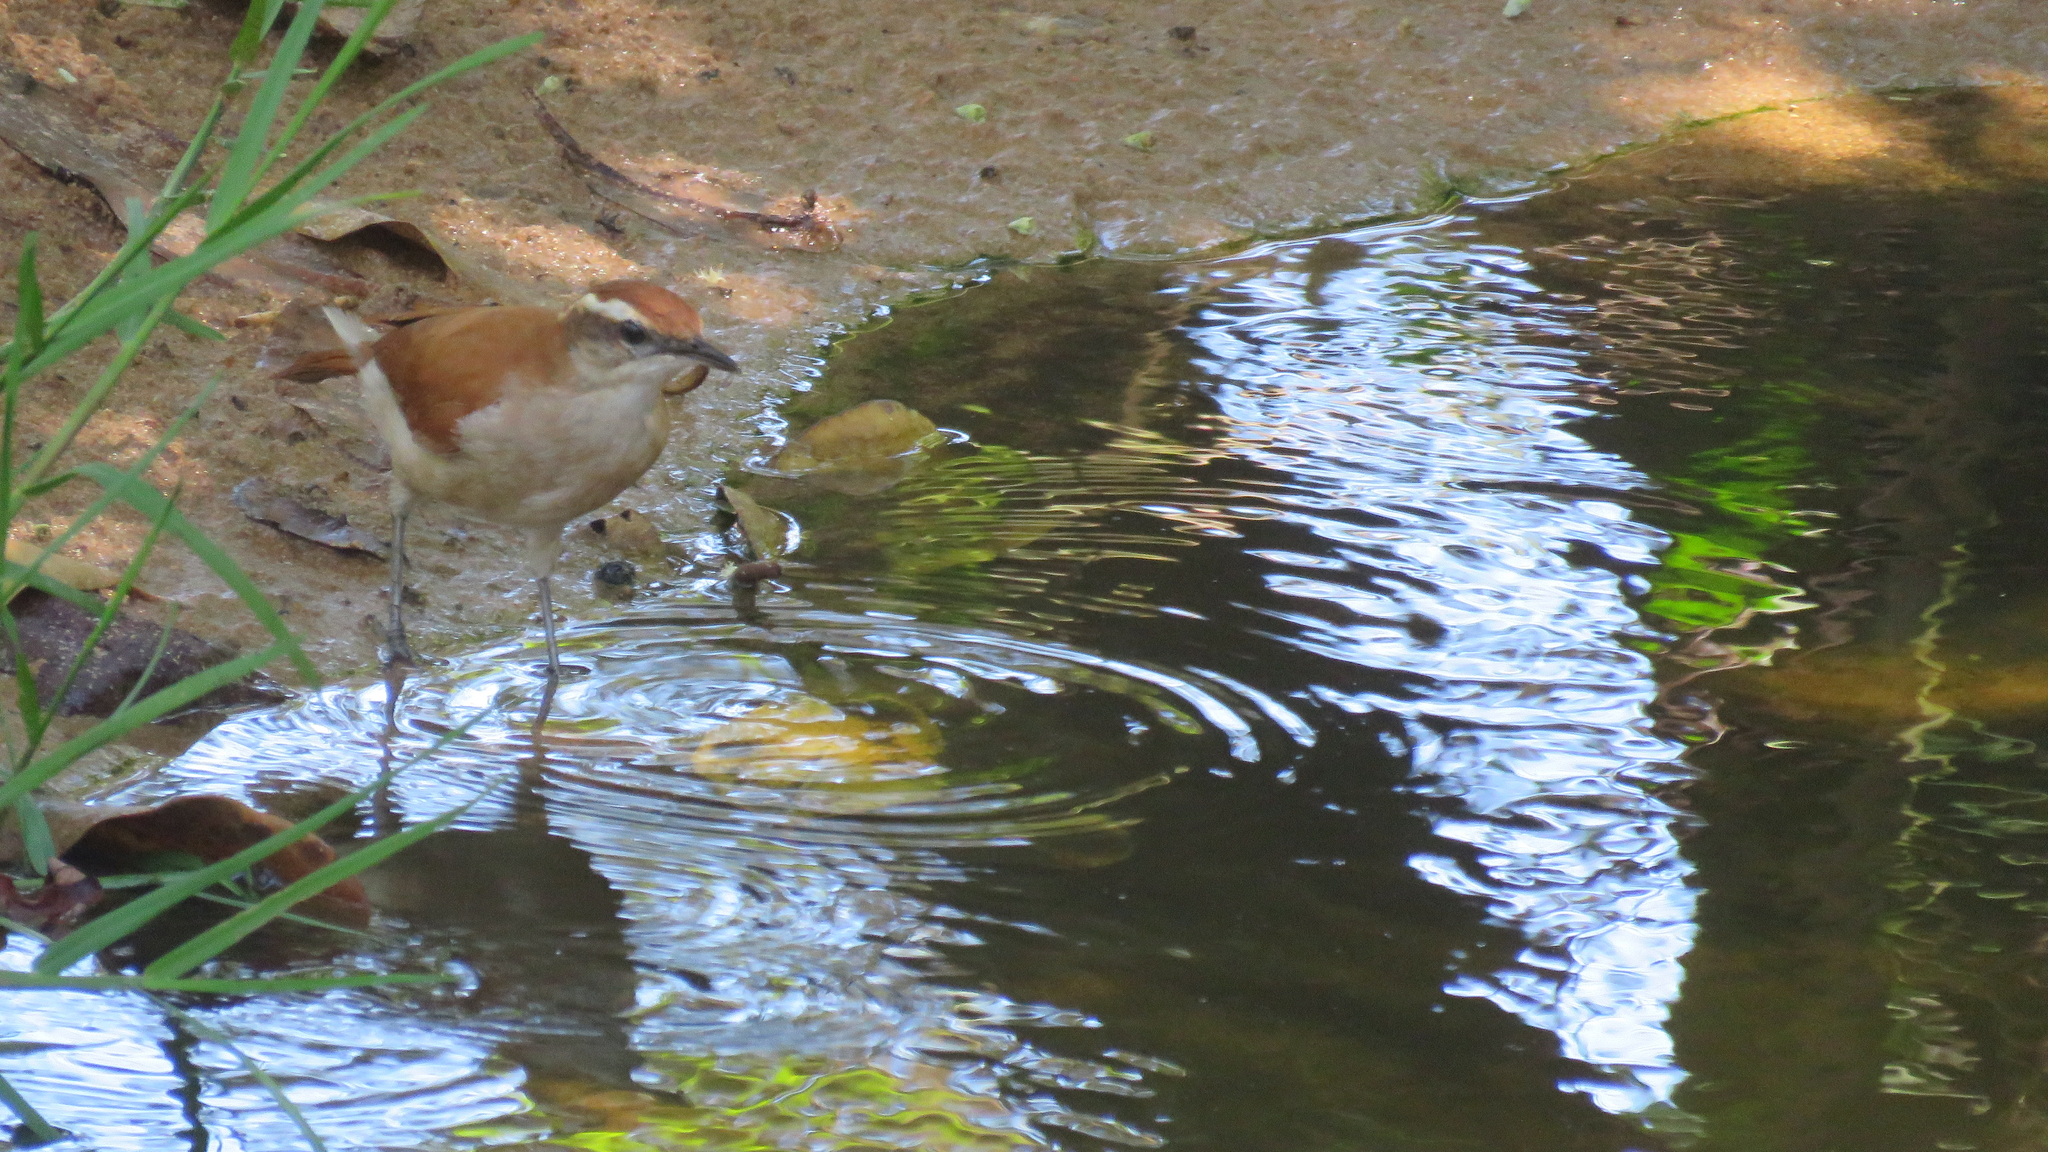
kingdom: Animalia
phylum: Chordata
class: Aves
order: Passeriformes
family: Furnariidae
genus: Furnarius
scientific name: Furnarius figulus
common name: Band-tailed hornero
